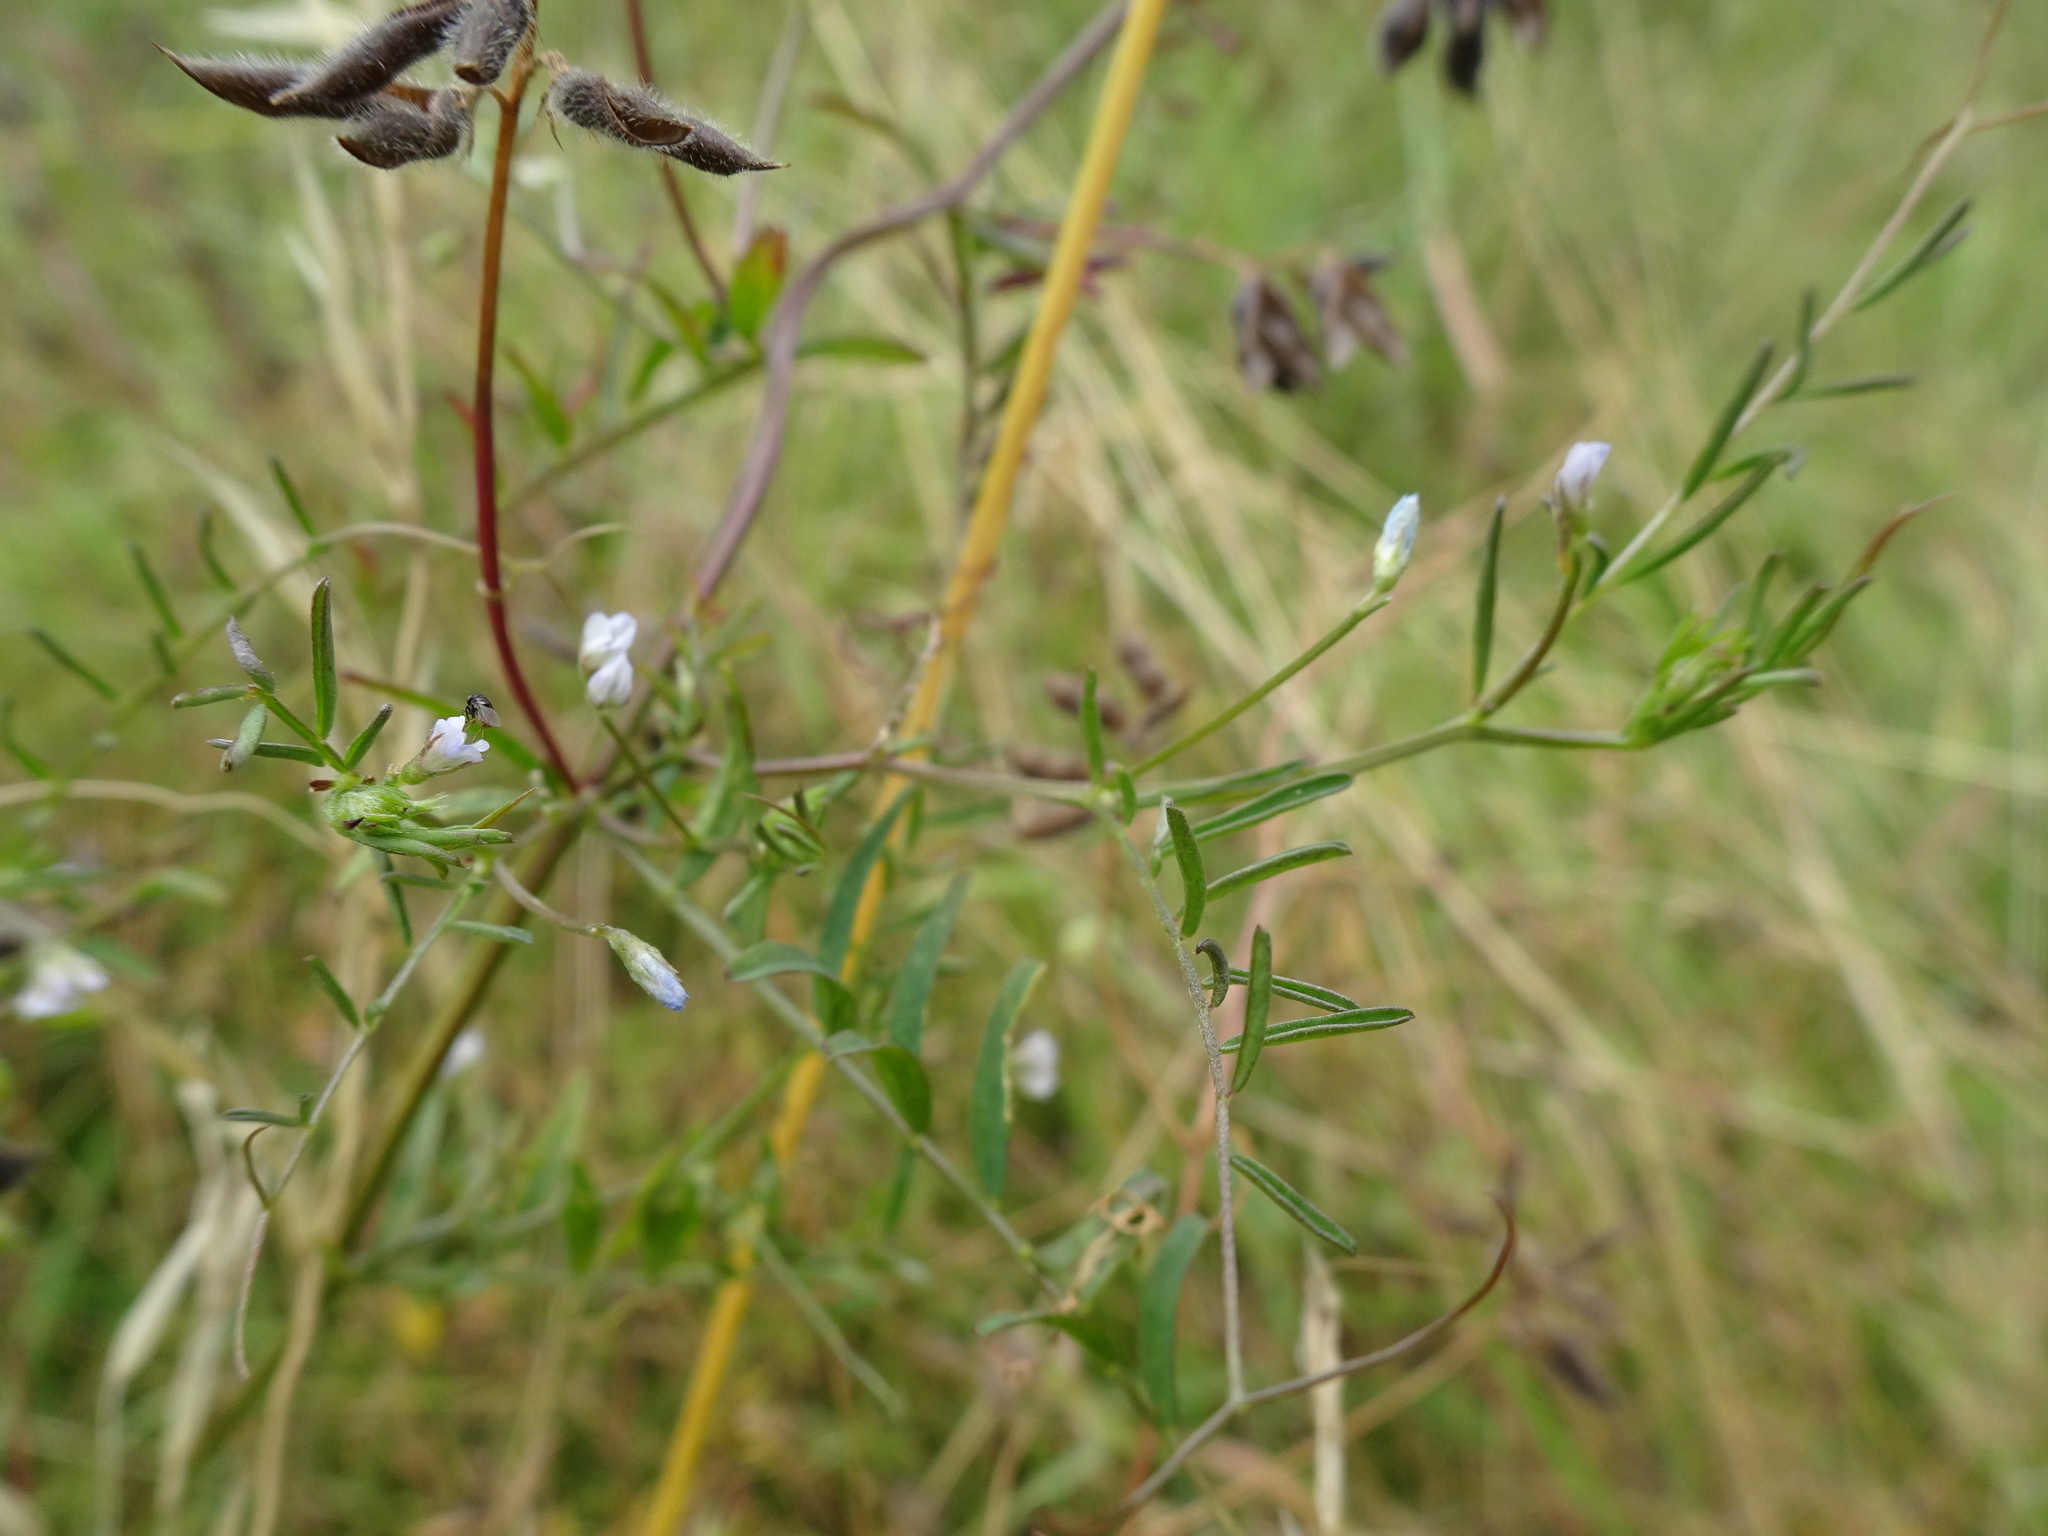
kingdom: Plantae
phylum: Tracheophyta
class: Magnoliopsida
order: Fabales
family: Fabaceae
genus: Vicia
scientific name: Vicia tetrasperma
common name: Smooth tare
